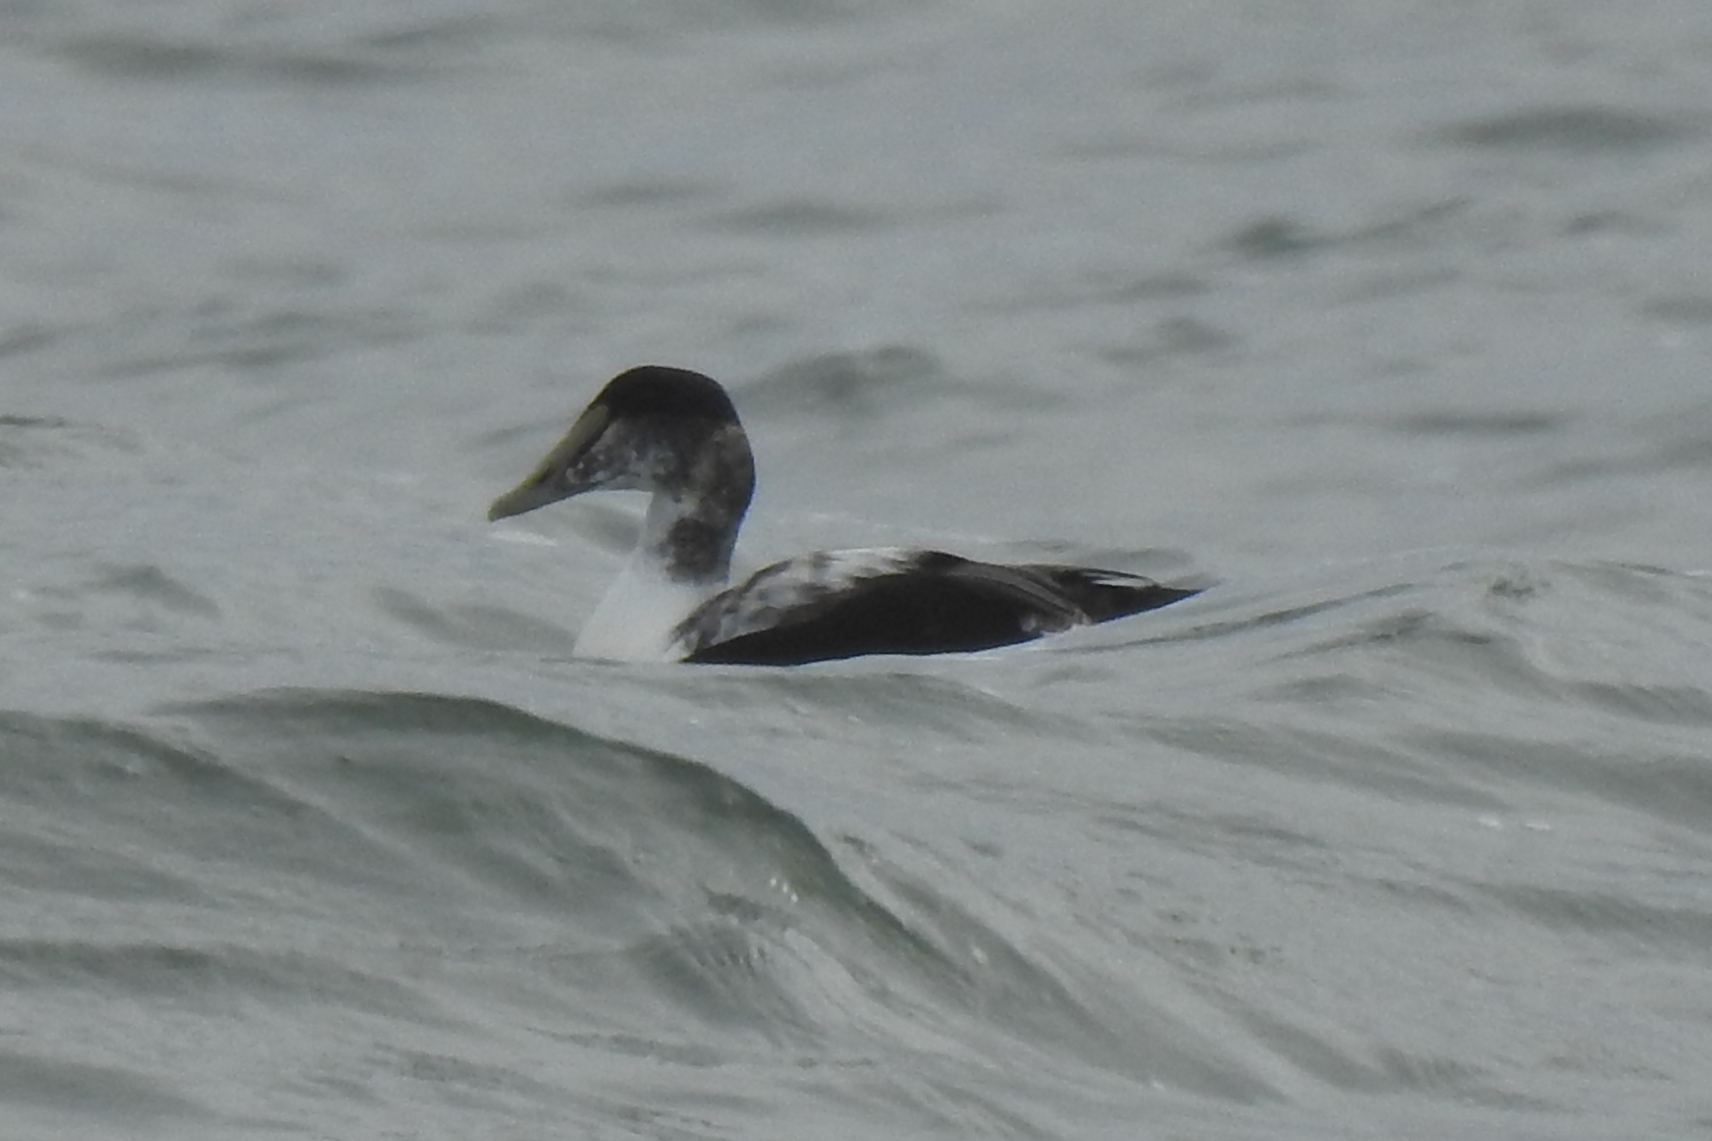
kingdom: Animalia
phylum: Chordata
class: Aves
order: Anseriformes
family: Anatidae
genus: Somateria
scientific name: Somateria mollissima
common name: Common eider
